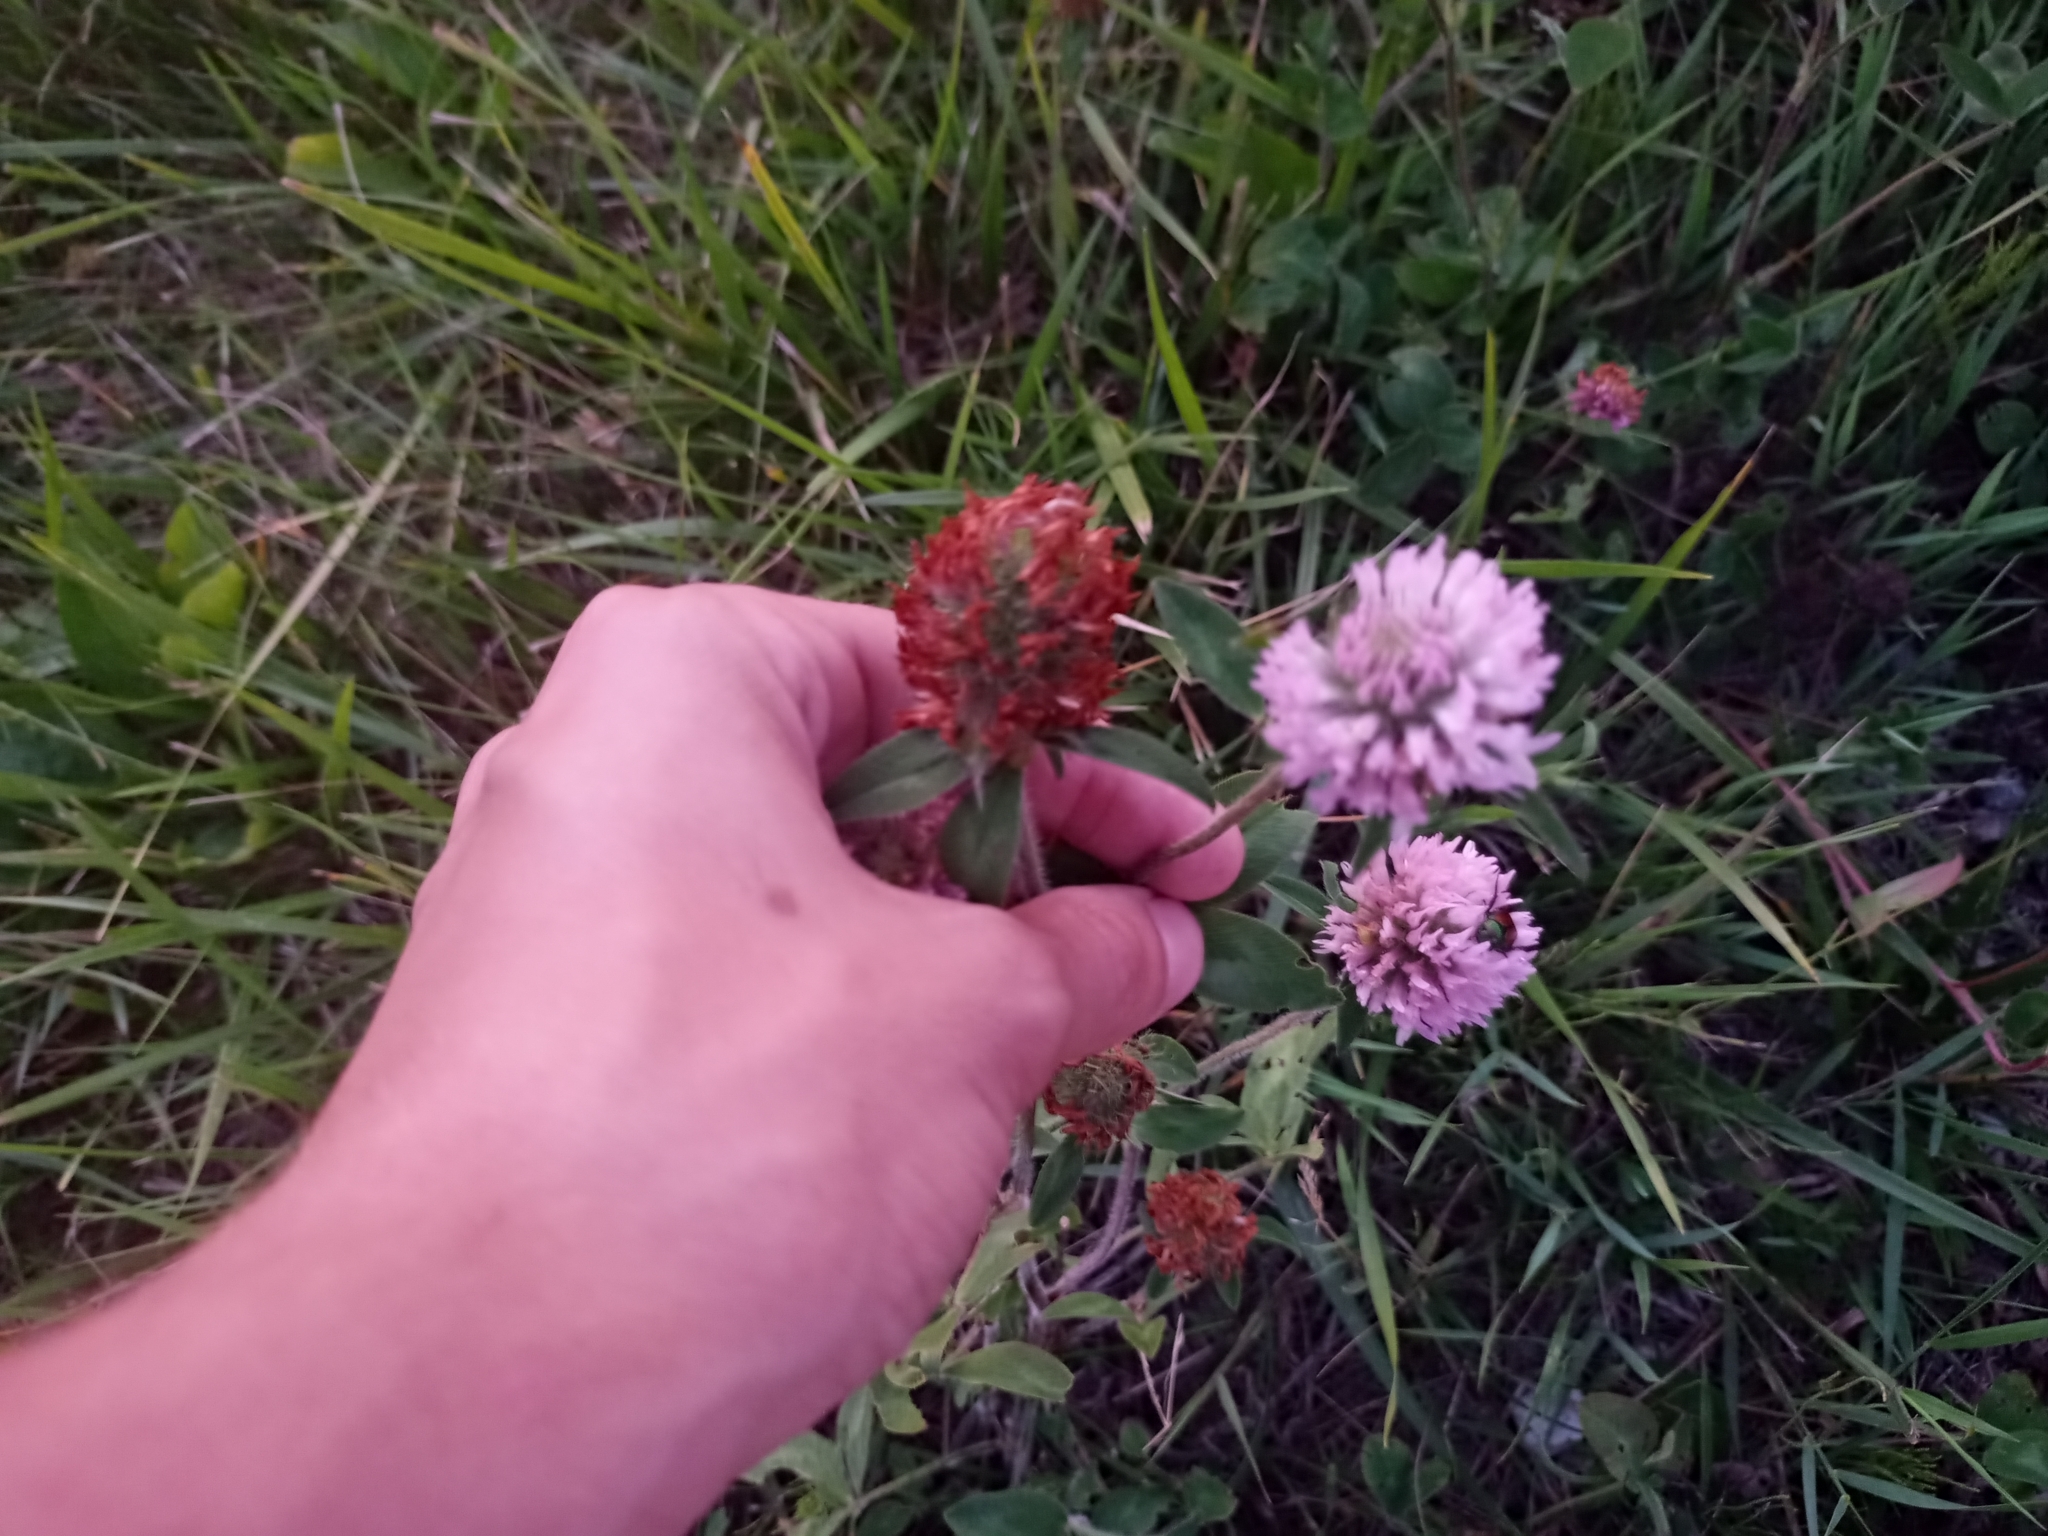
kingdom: Plantae
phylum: Tracheophyta
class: Magnoliopsida
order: Fabales
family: Fabaceae
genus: Trifolium
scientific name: Trifolium pratense
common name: Red clover
